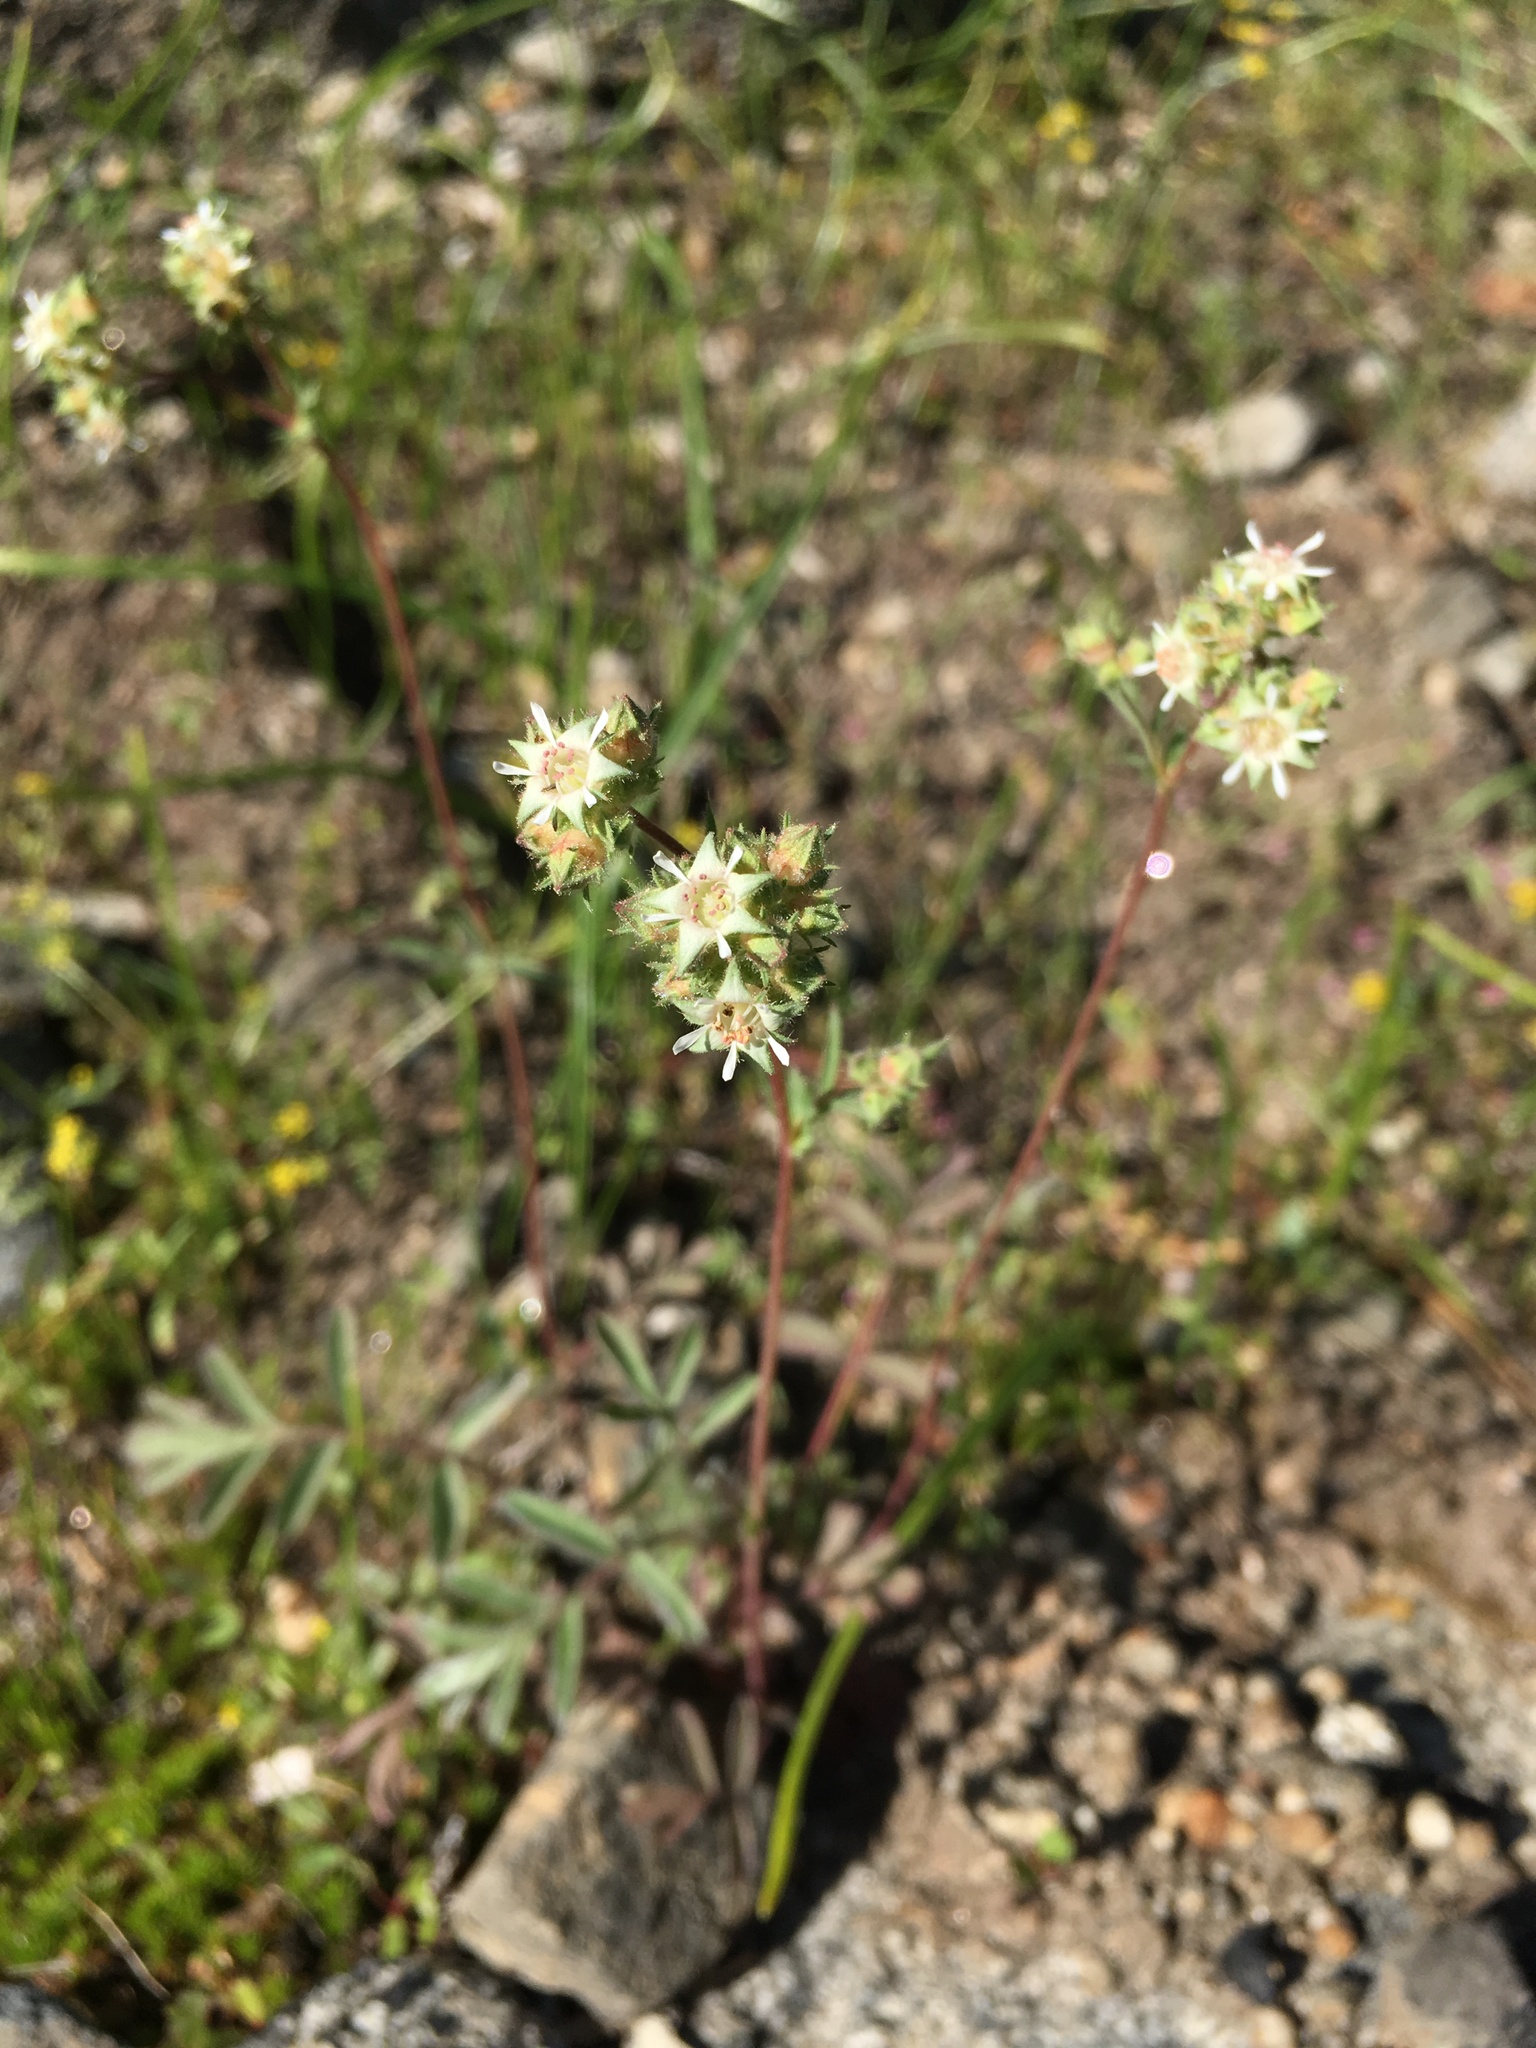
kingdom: Plantae
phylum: Tracheophyta
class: Magnoliopsida
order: Rosales
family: Rosaceae
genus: Potentilla
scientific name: Potentilla tilingii
